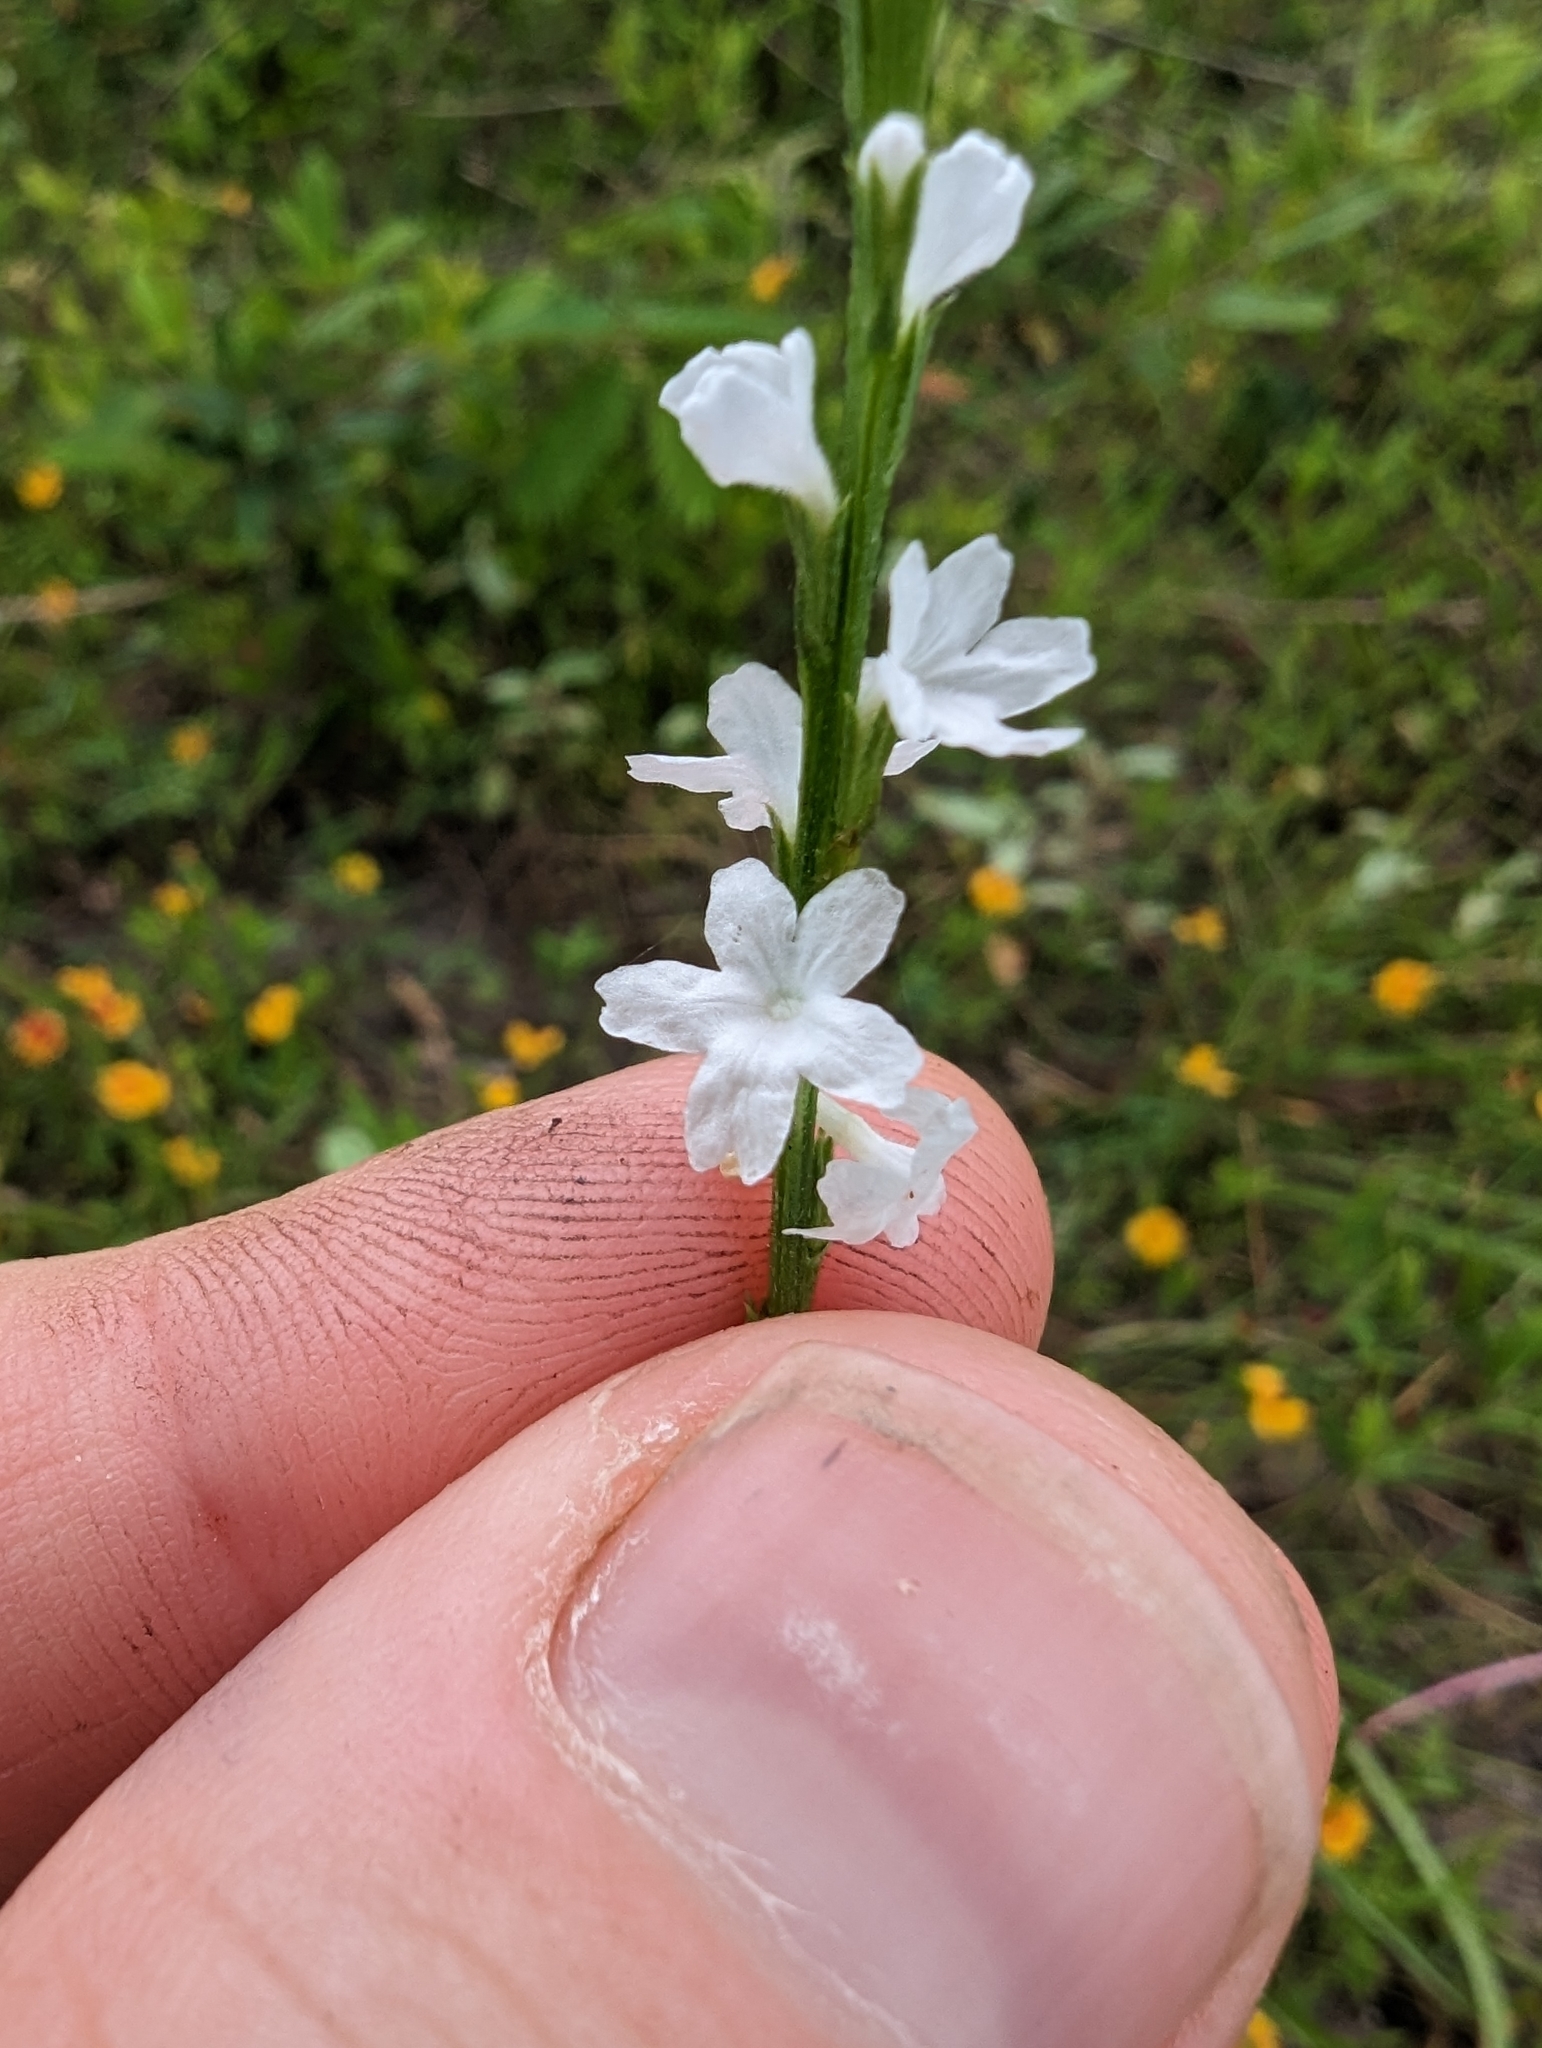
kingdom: Plantae
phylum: Tracheophyta
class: Magnoliopsida
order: Lamiales
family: Verbenaceae
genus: Verbena
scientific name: Verbena halei
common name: Texas vervain
